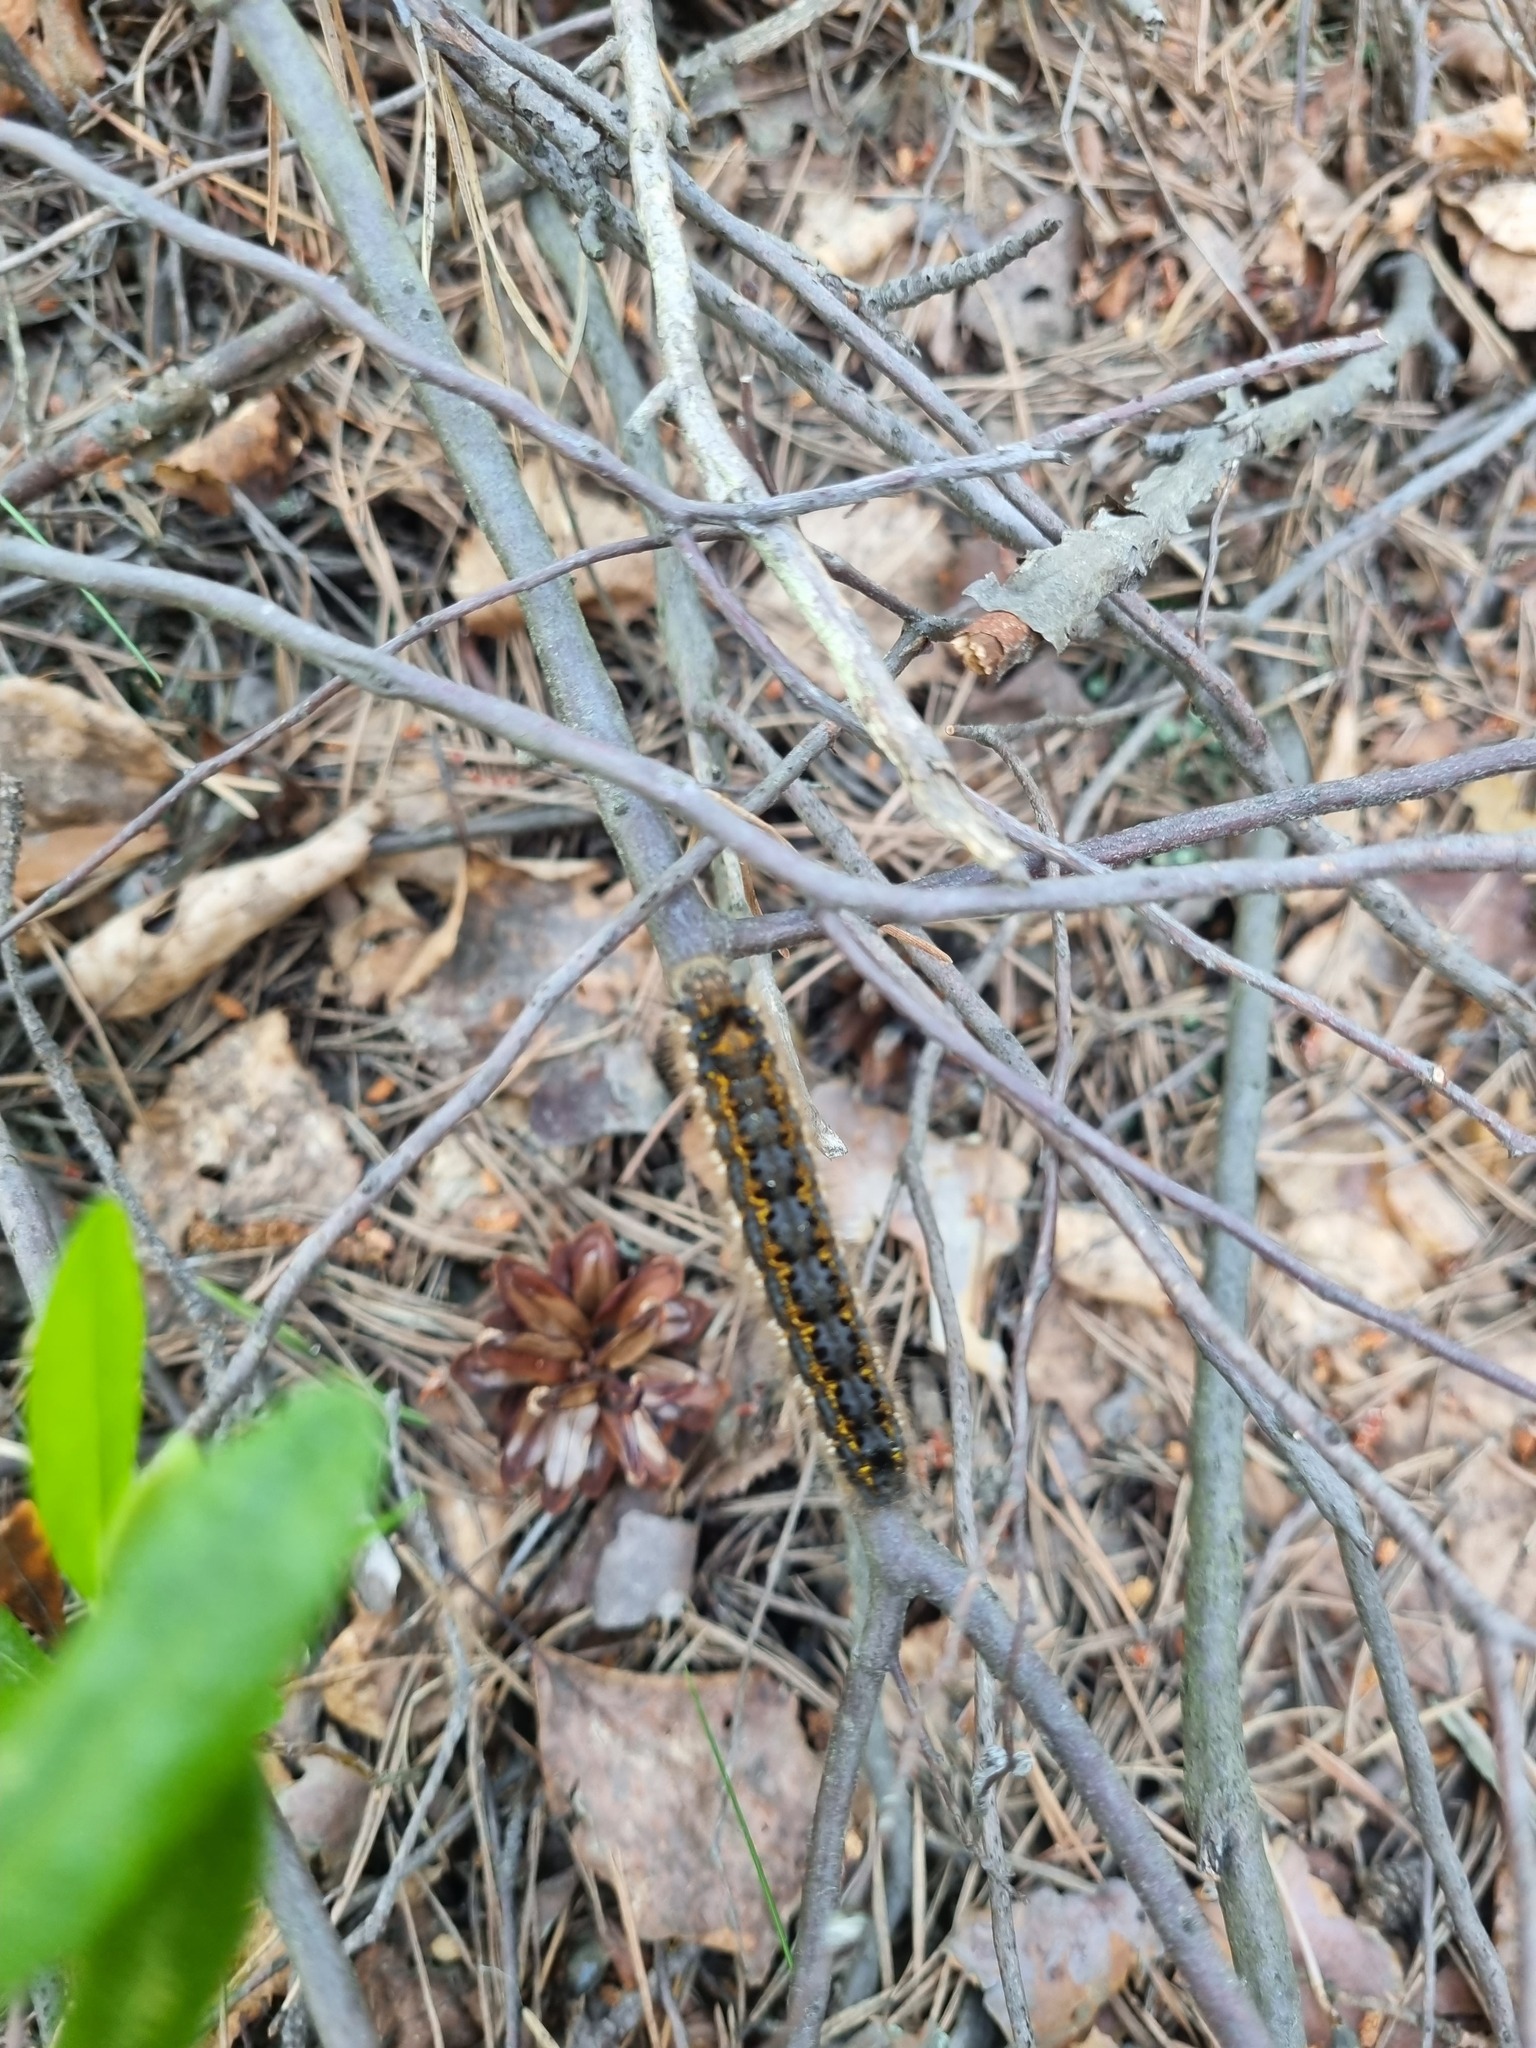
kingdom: Animalia
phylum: Arthropoda
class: Insecta
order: Lepidoptera
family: Lasiocampidae
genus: Euthrix
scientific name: Euthrix potatoria
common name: Drinker
